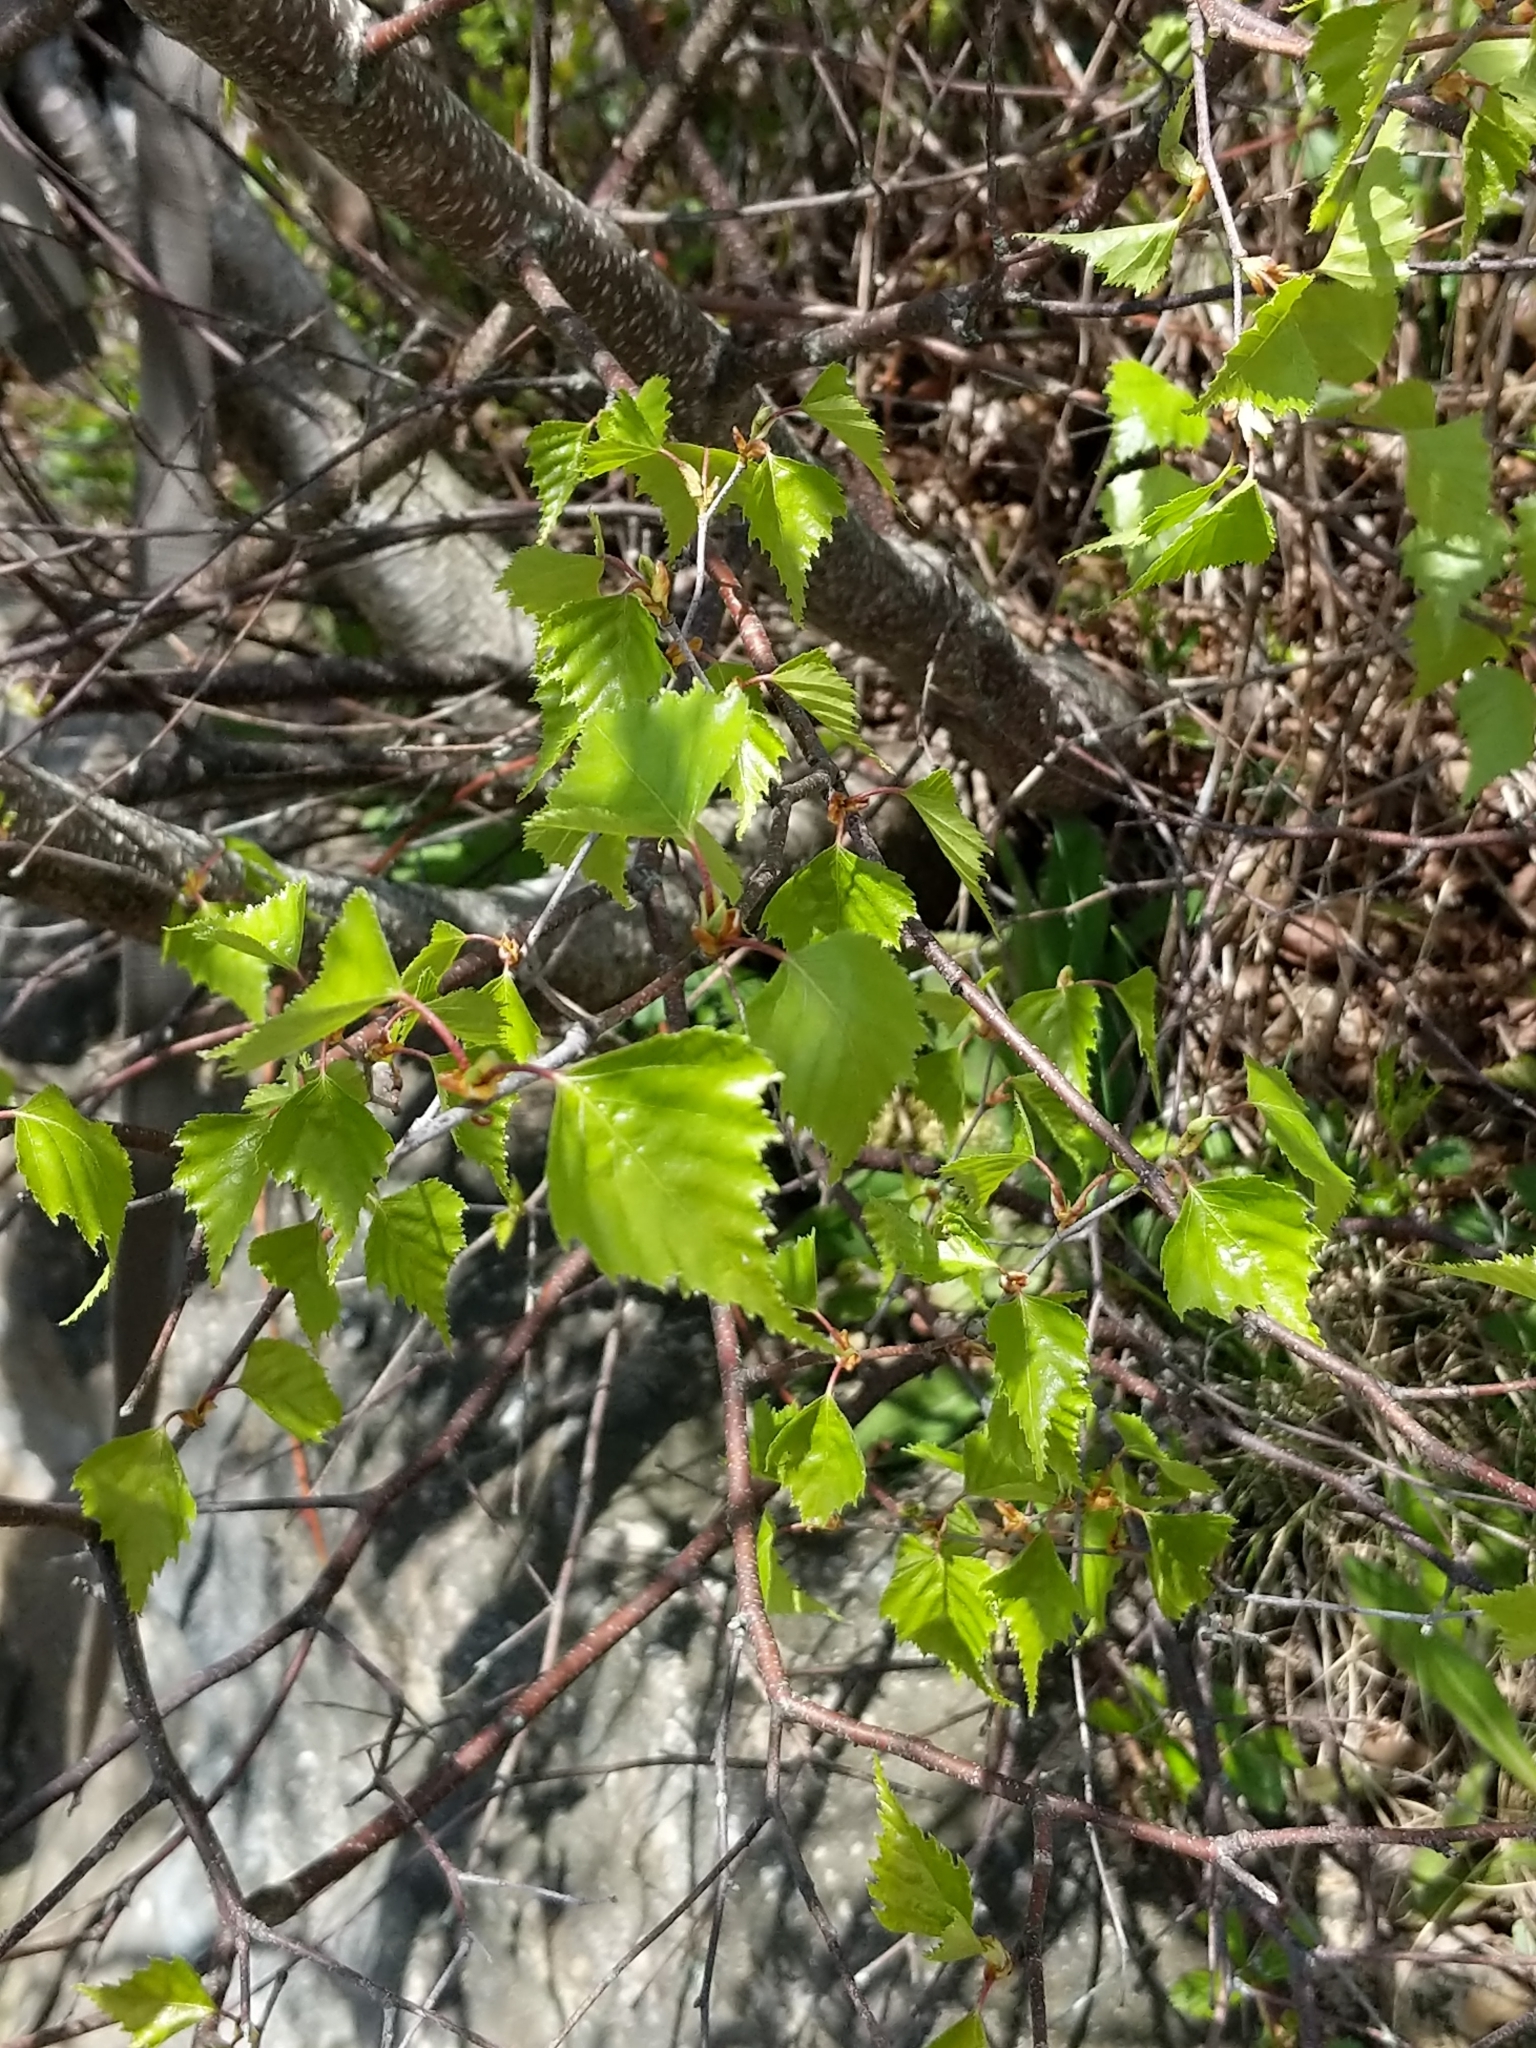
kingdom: Plantae
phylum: Tracheophyta
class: Magnoliopsida
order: Fagales
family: Betulaceae
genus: Betula
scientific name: Betula populifolia
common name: Fire birch
